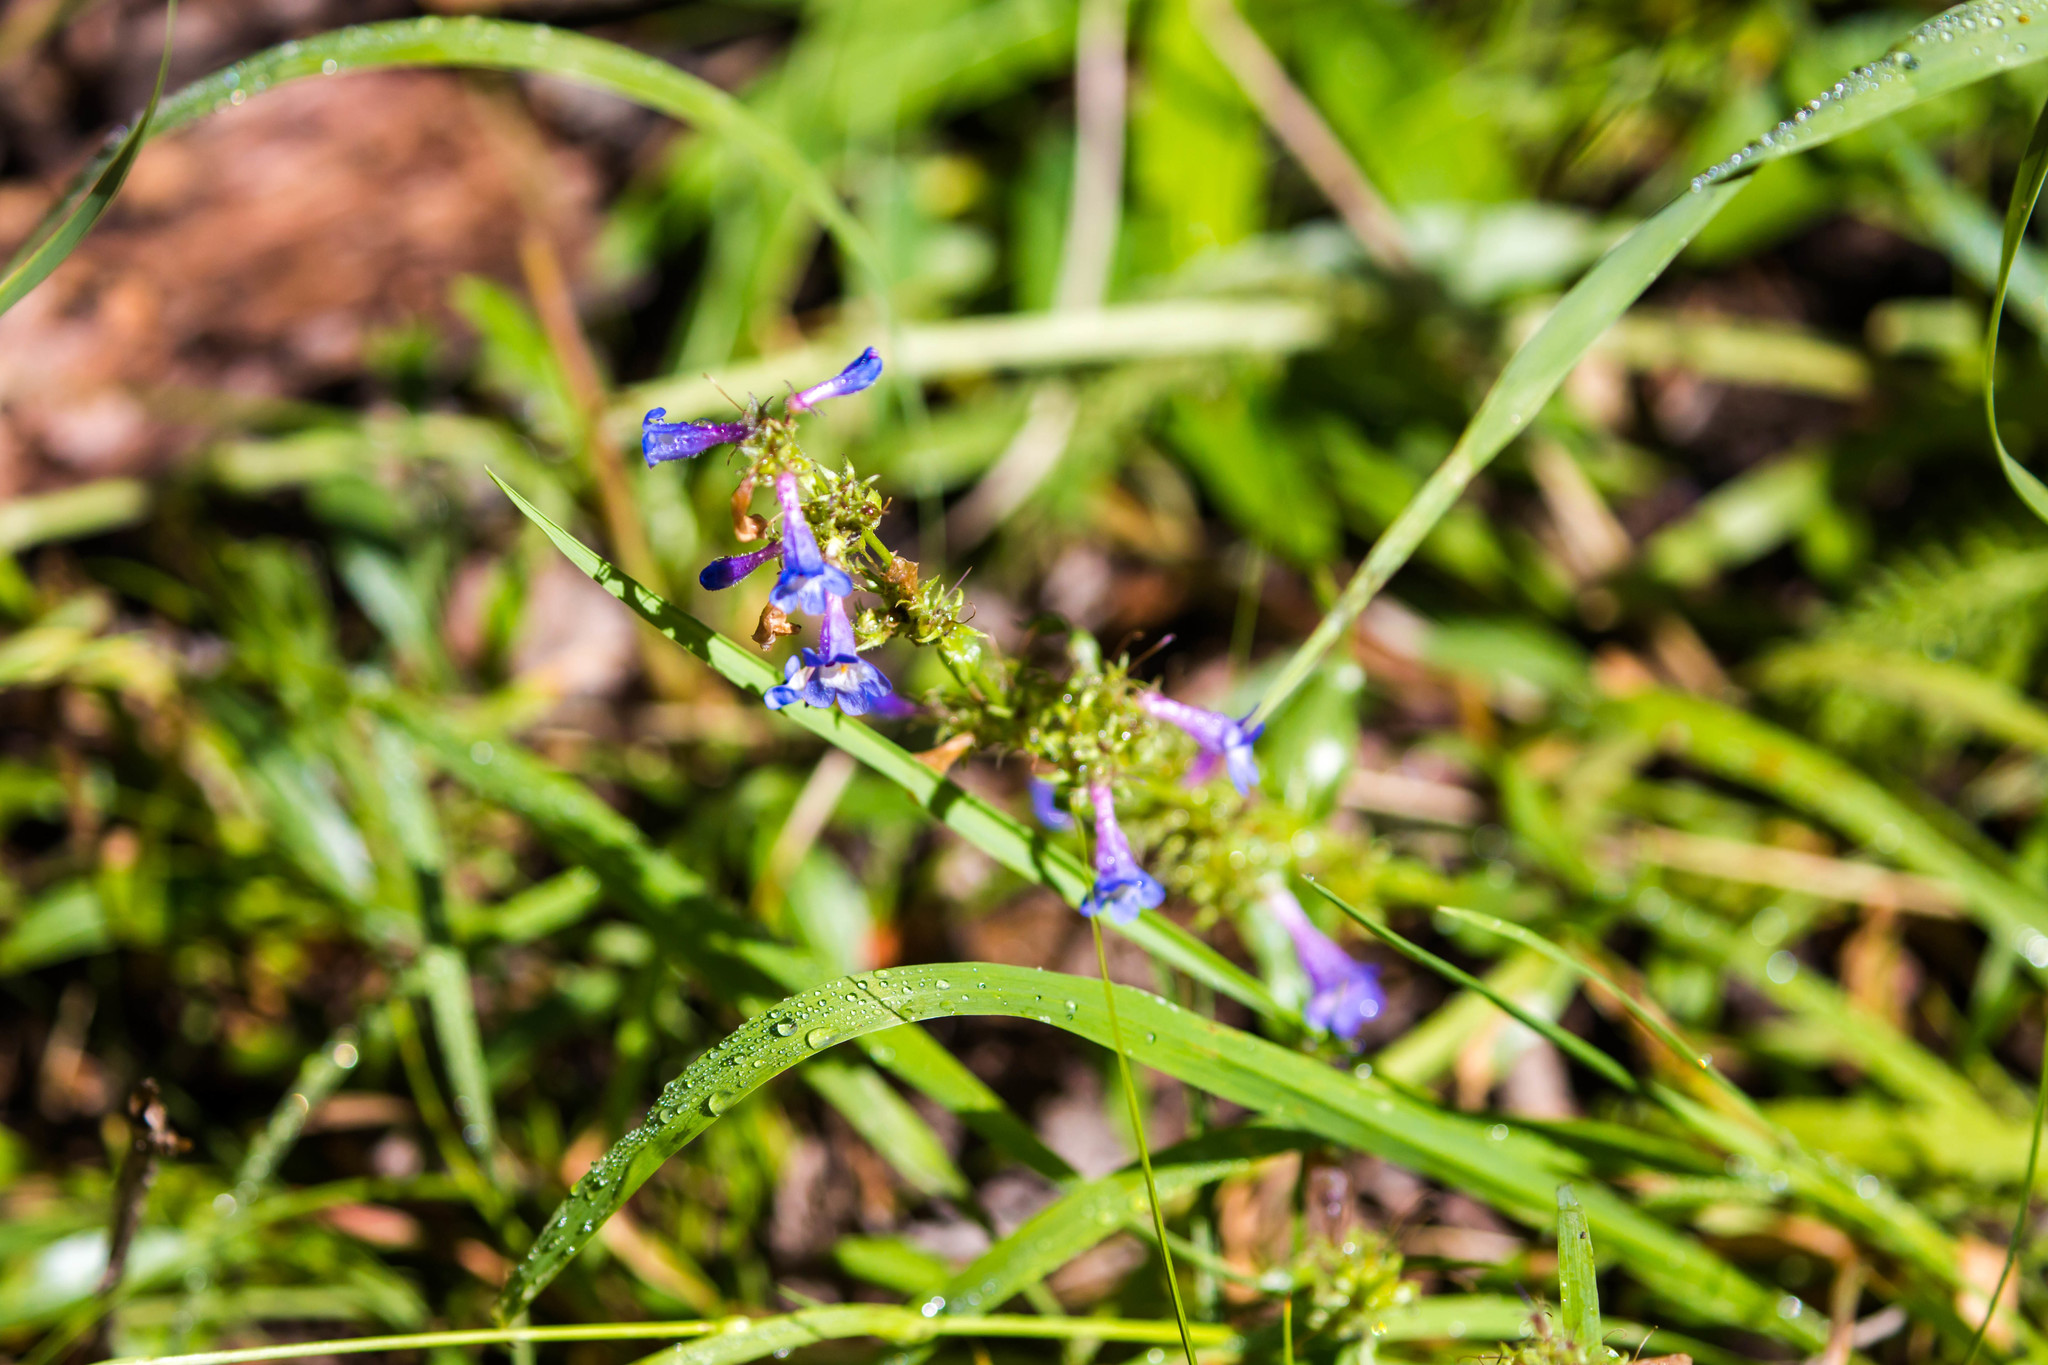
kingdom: Plantae
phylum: Tracheophyta
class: Magnoliopsida
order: Lamiales
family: Plantaginaceae
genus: Penstemon
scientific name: Penstemon rydbergii
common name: Rydberg's beardtongue
